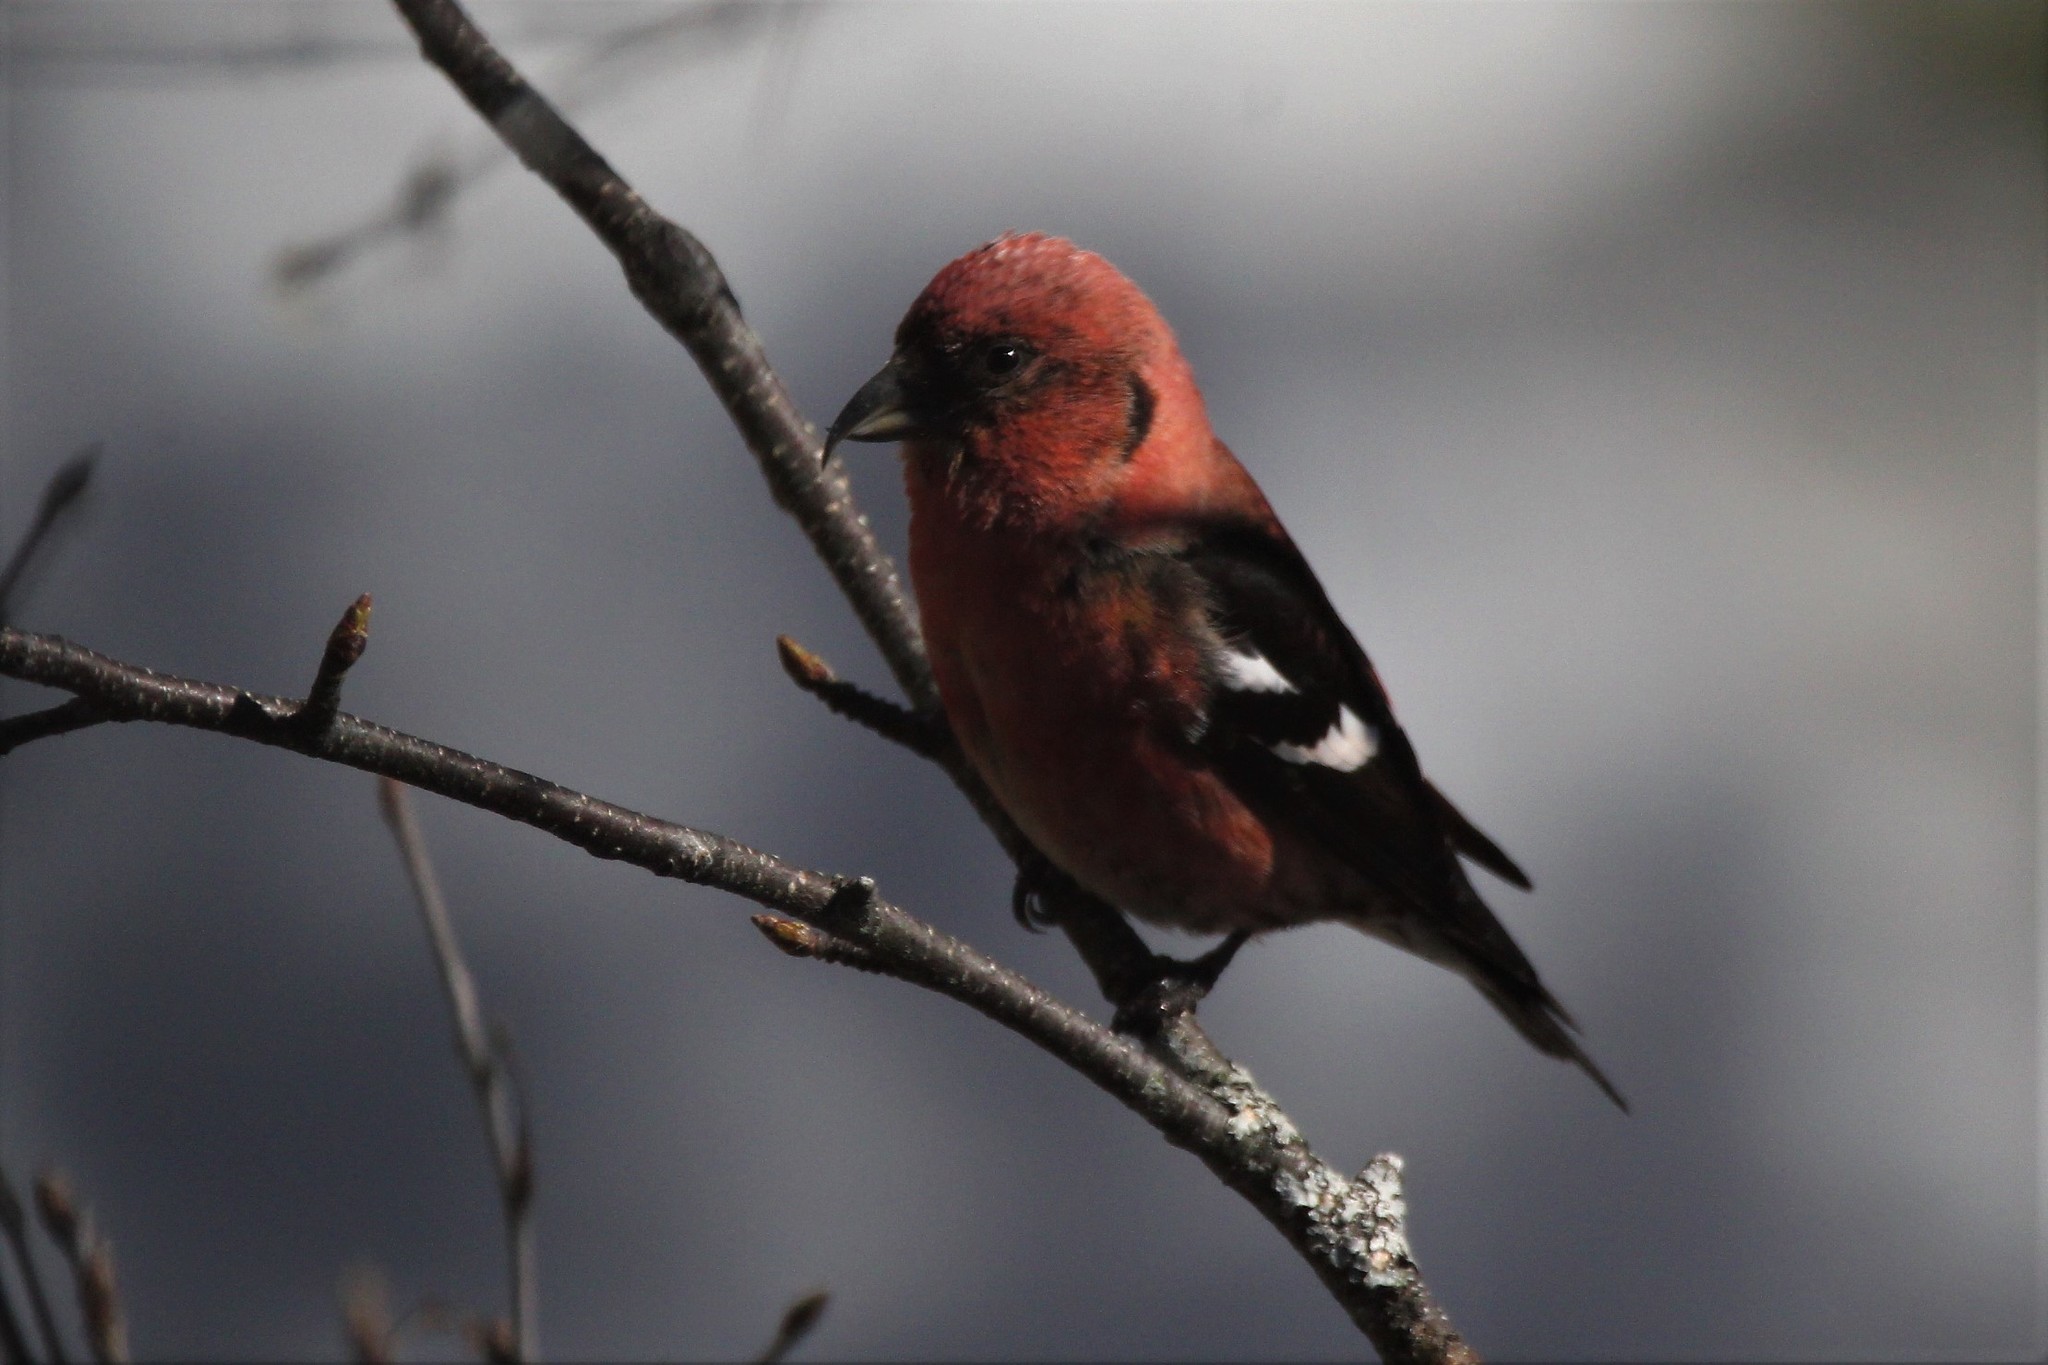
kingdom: Animalia
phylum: Chordata
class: Aves
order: Passeriformes
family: Fringillidae
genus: Loxia
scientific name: Loxia leucoptera
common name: Two-barred crossbill
